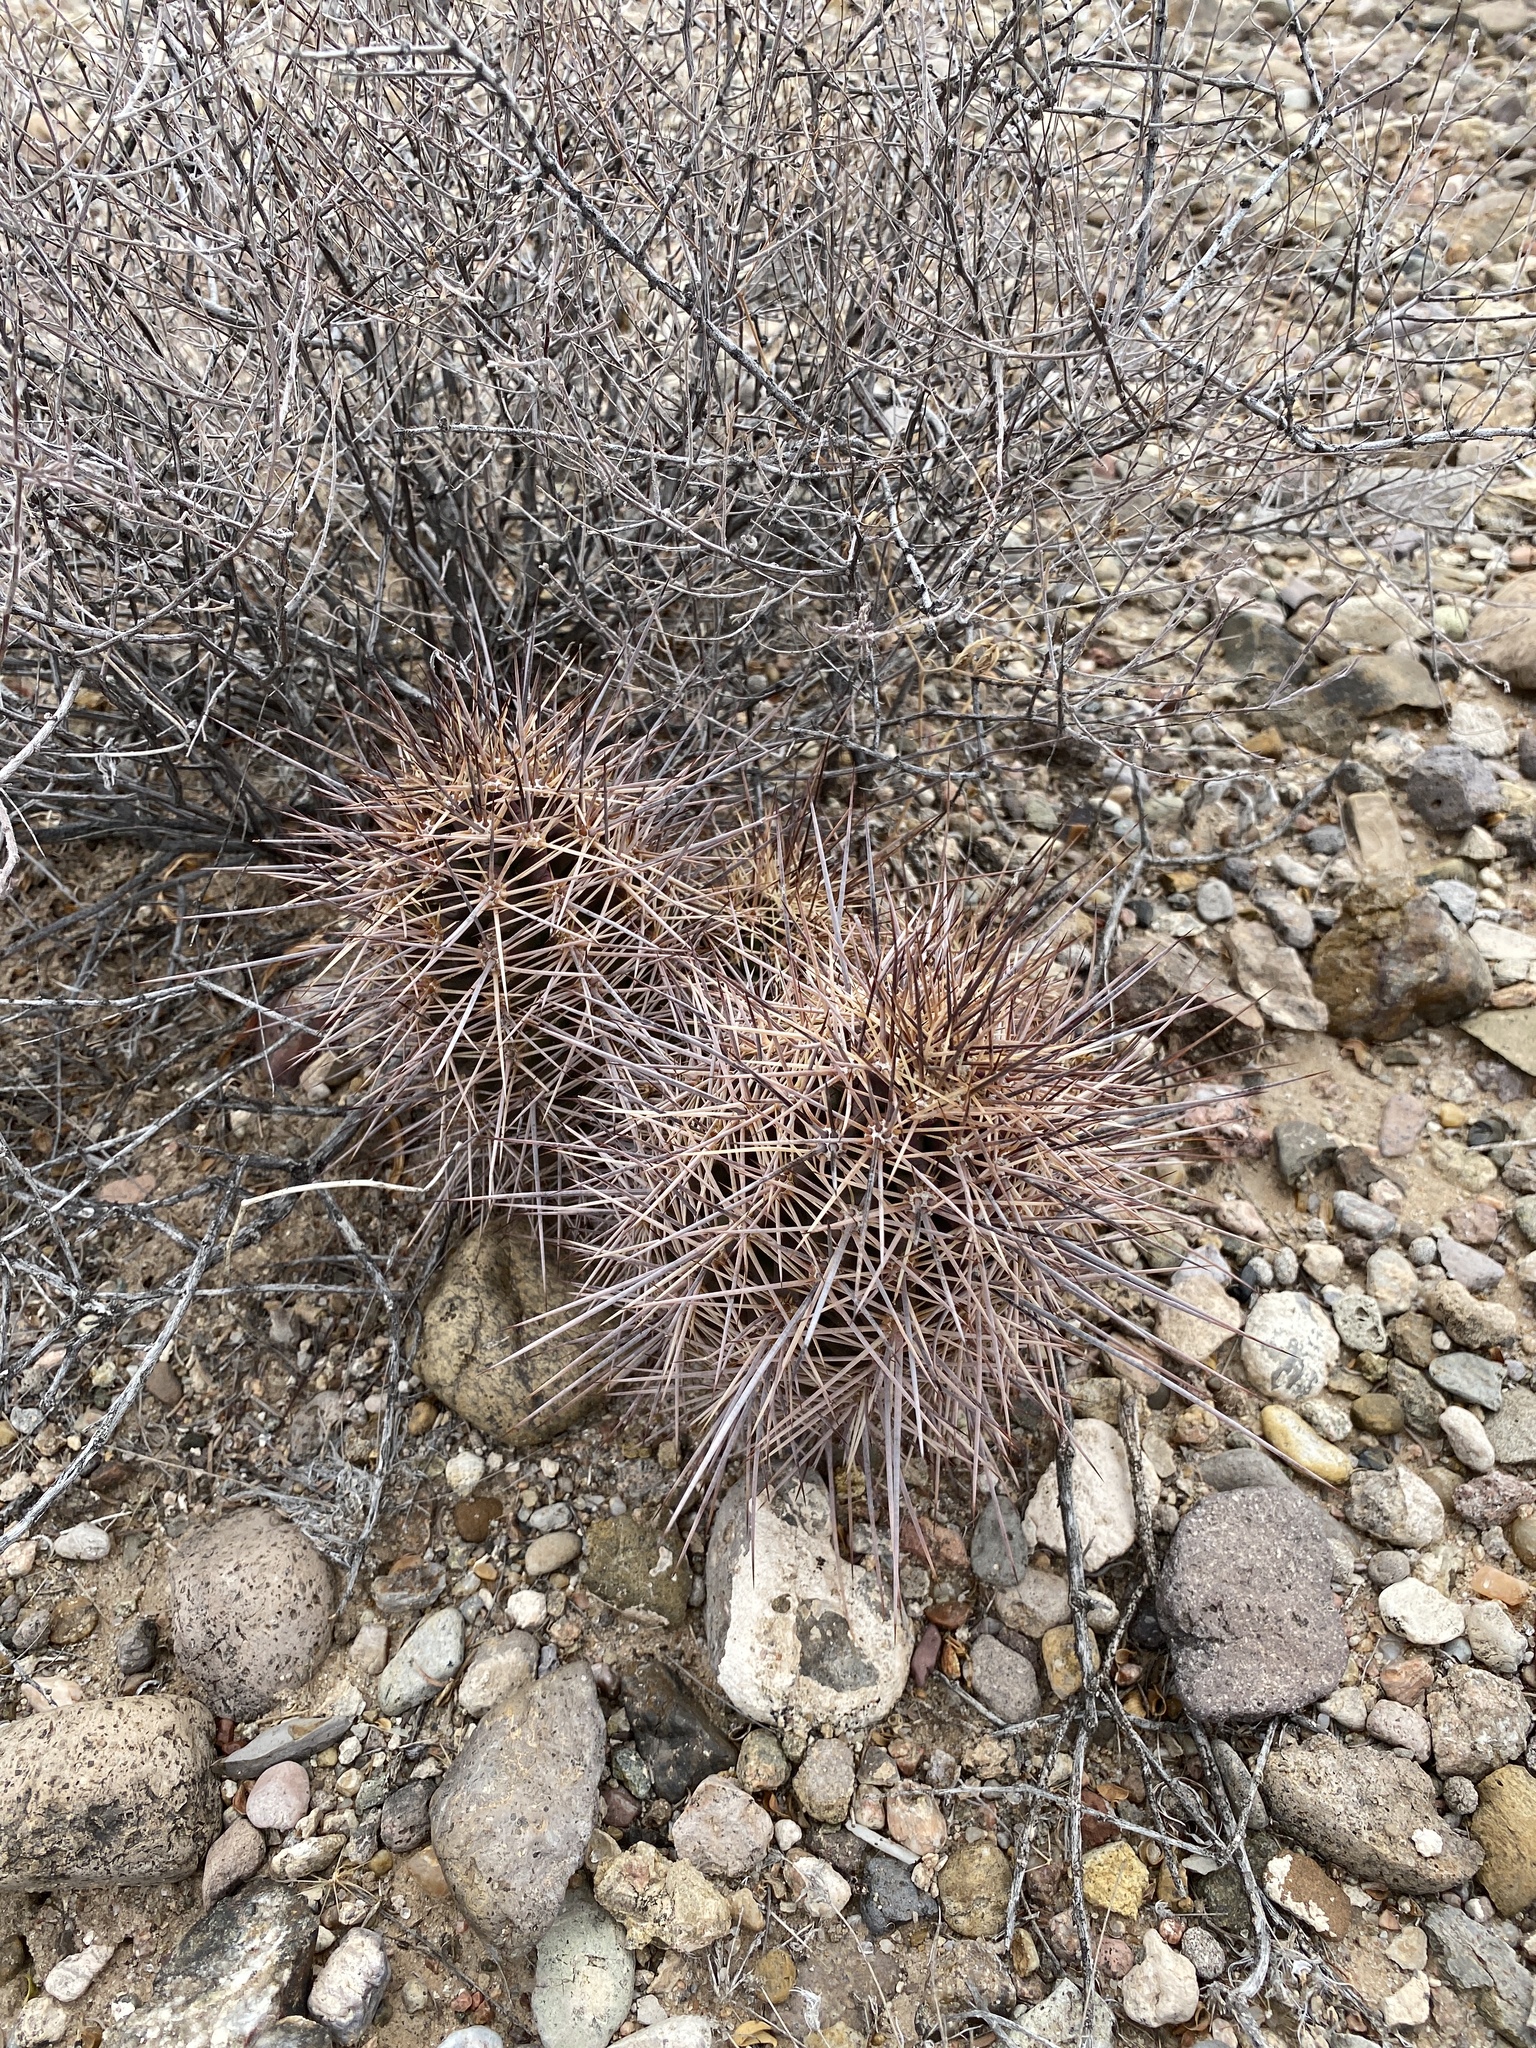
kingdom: Plantae
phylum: Tracheophyta
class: Magnoliopsida
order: Caryophyllales
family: Cactaceae
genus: Echinocereus
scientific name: Echinocereus coccineus
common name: Scarlet hedgehog cactus
